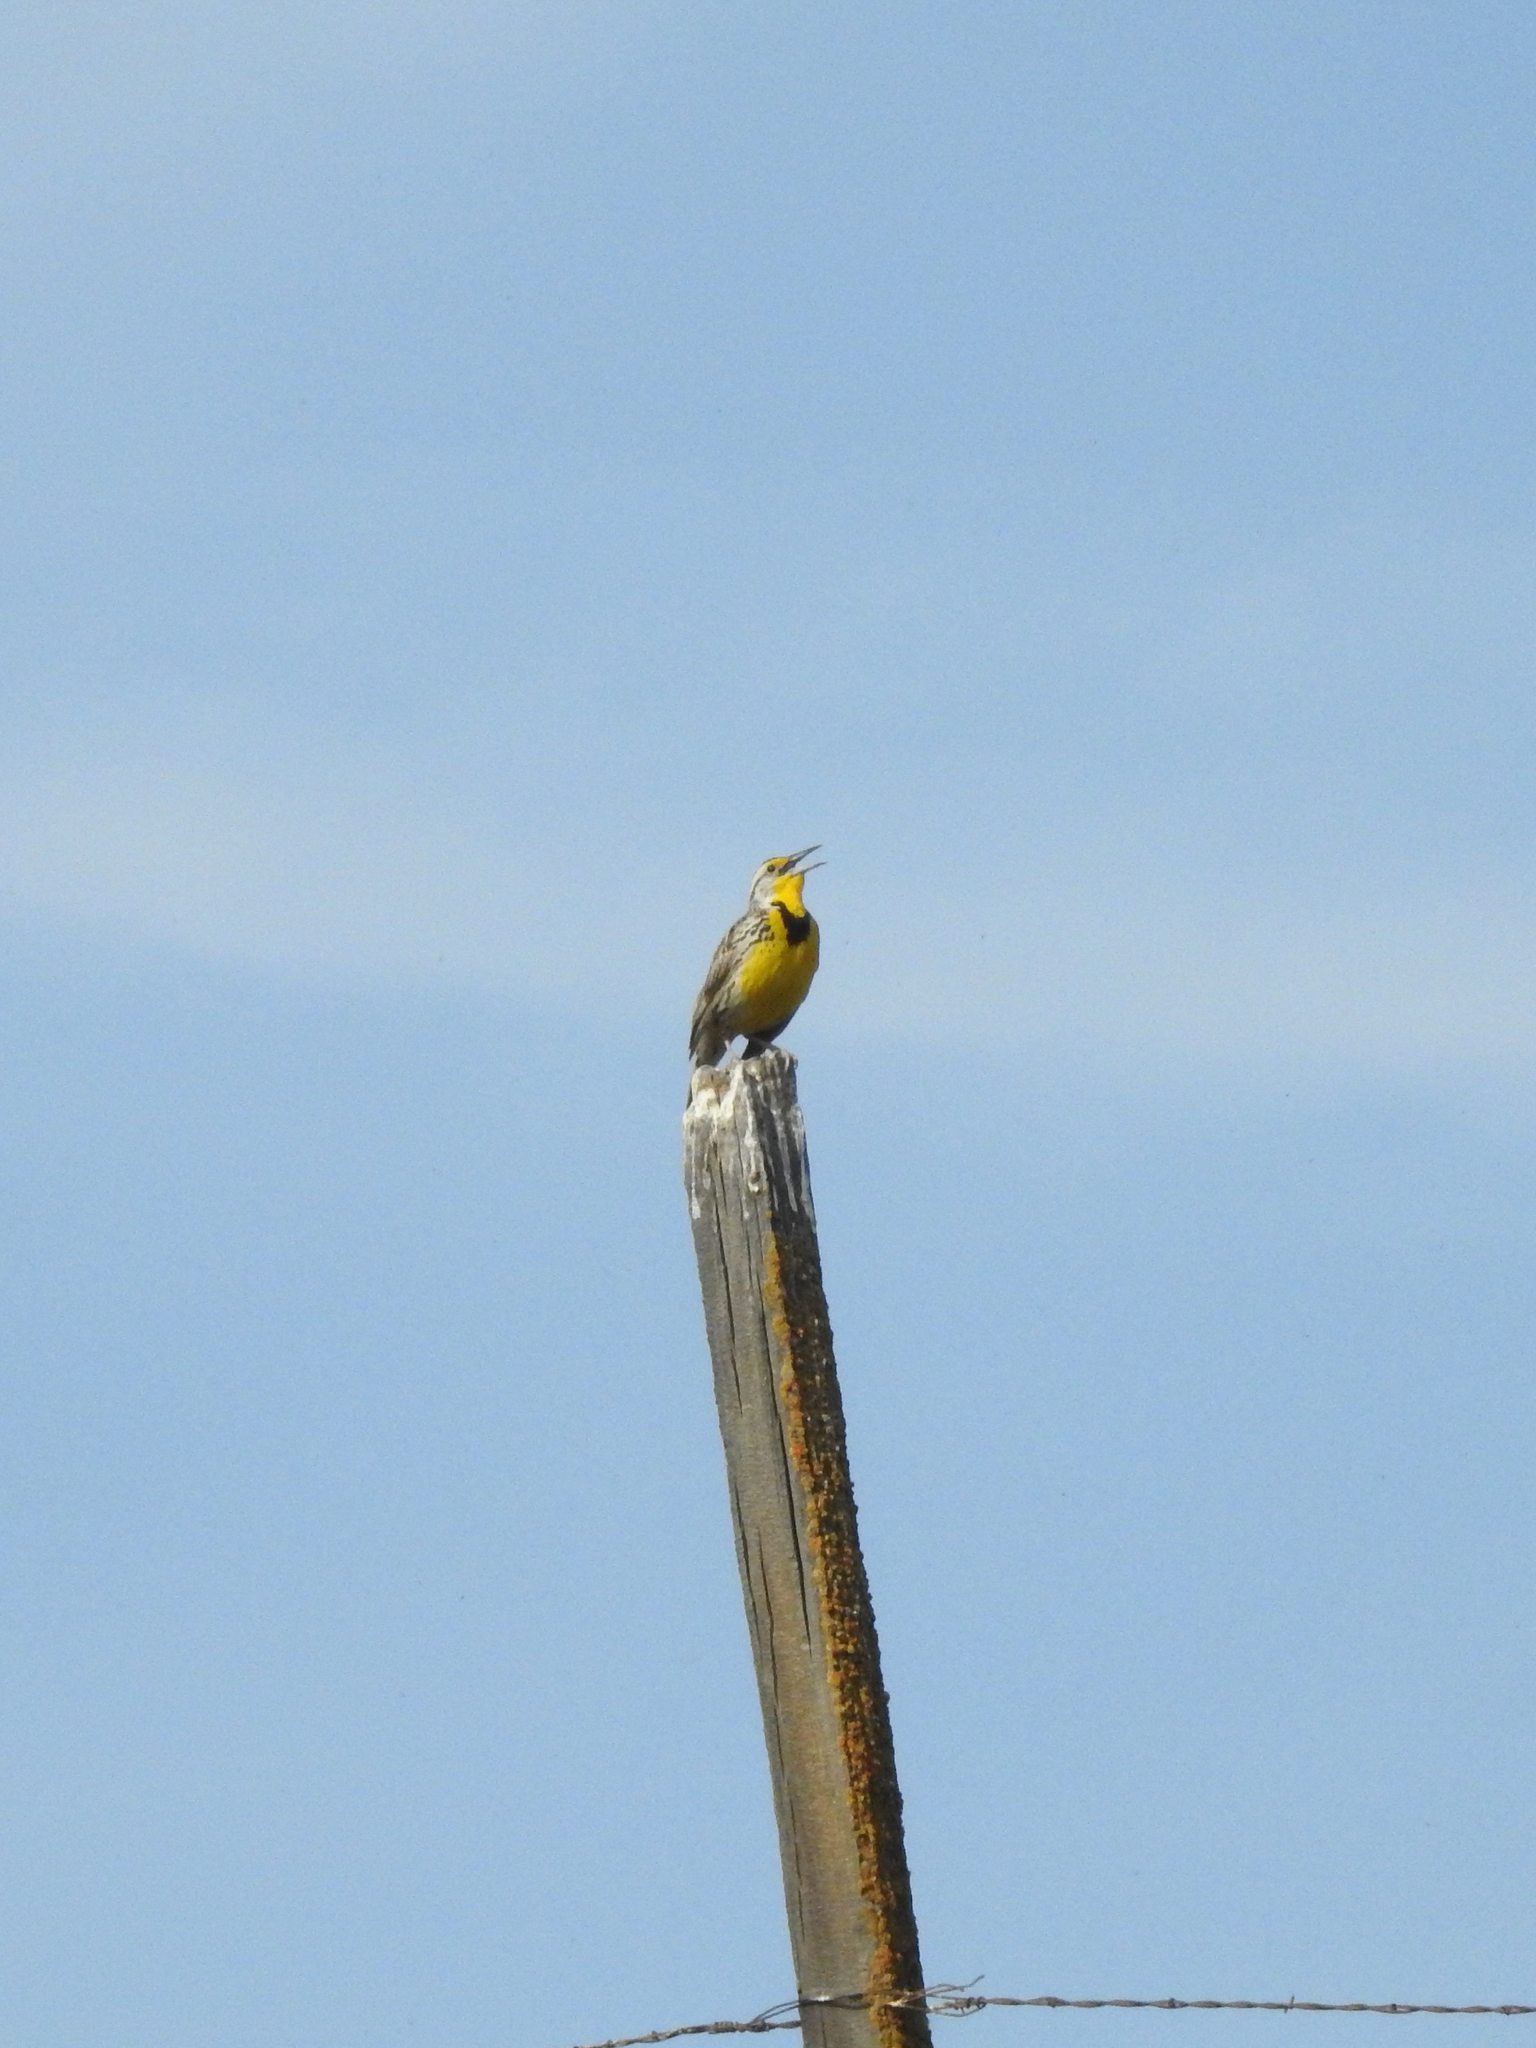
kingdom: Animalia
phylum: Chordata
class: Aves
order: Passeriformes
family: Icteridae
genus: Sturnella
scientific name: Sturnella neglecta
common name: Western meadowlark
